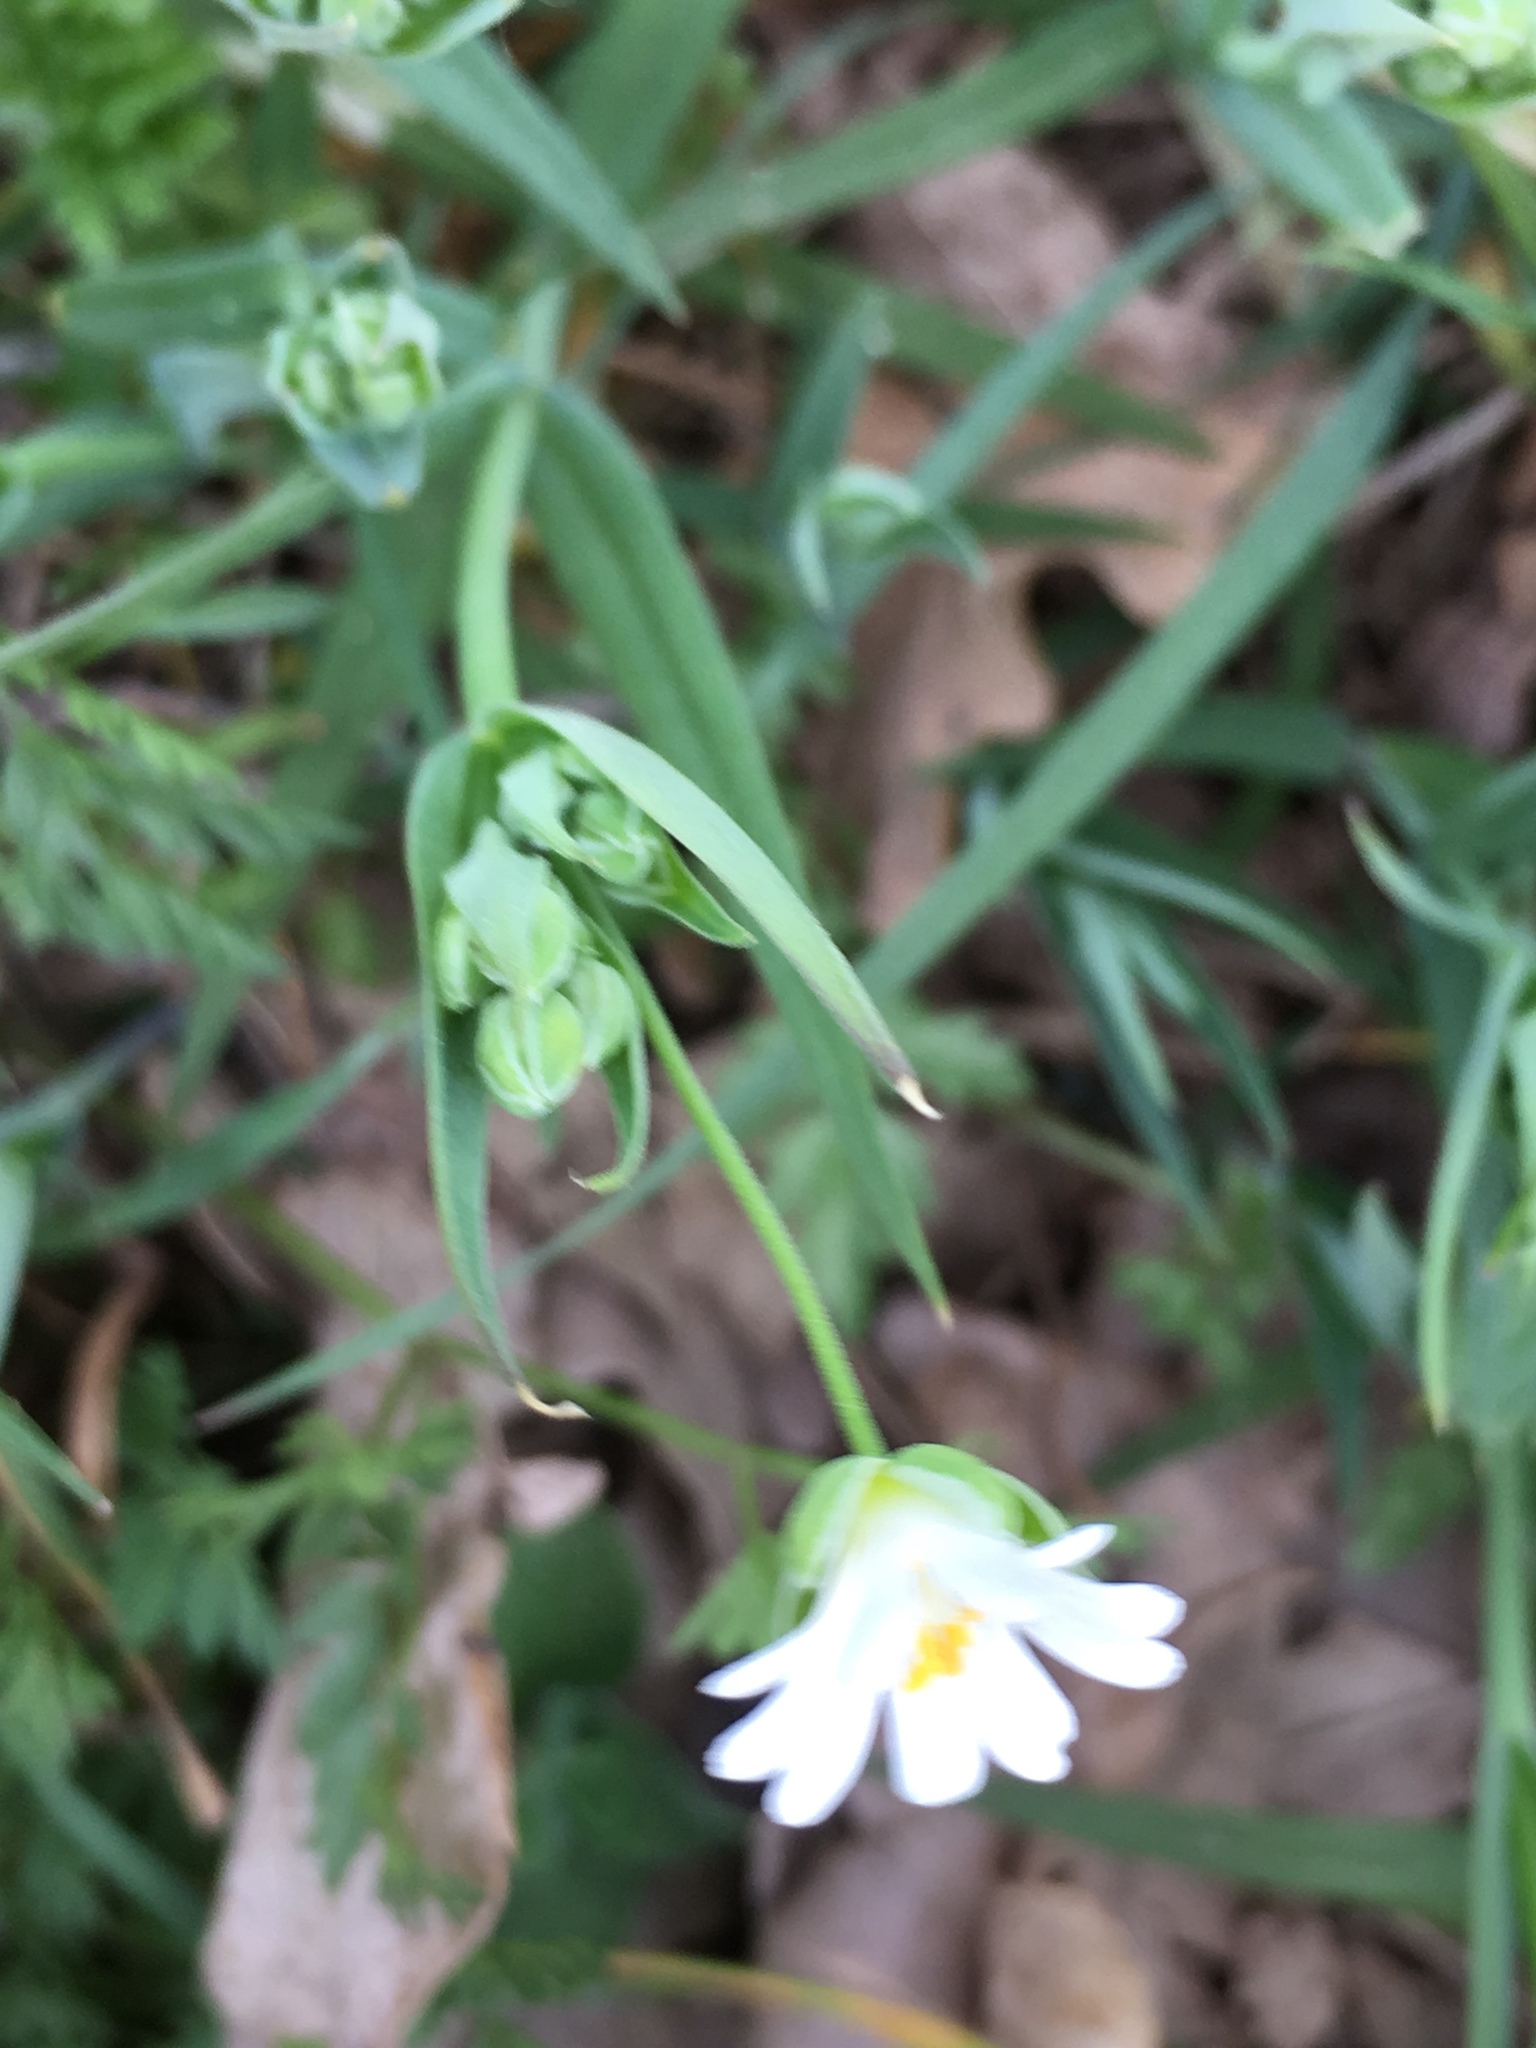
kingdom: Plantae
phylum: Tracheophyta
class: Magnoliopsida
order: Caryophyllales
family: Caryophyllaceae
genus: Rabelera
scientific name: Rabelera holostea
